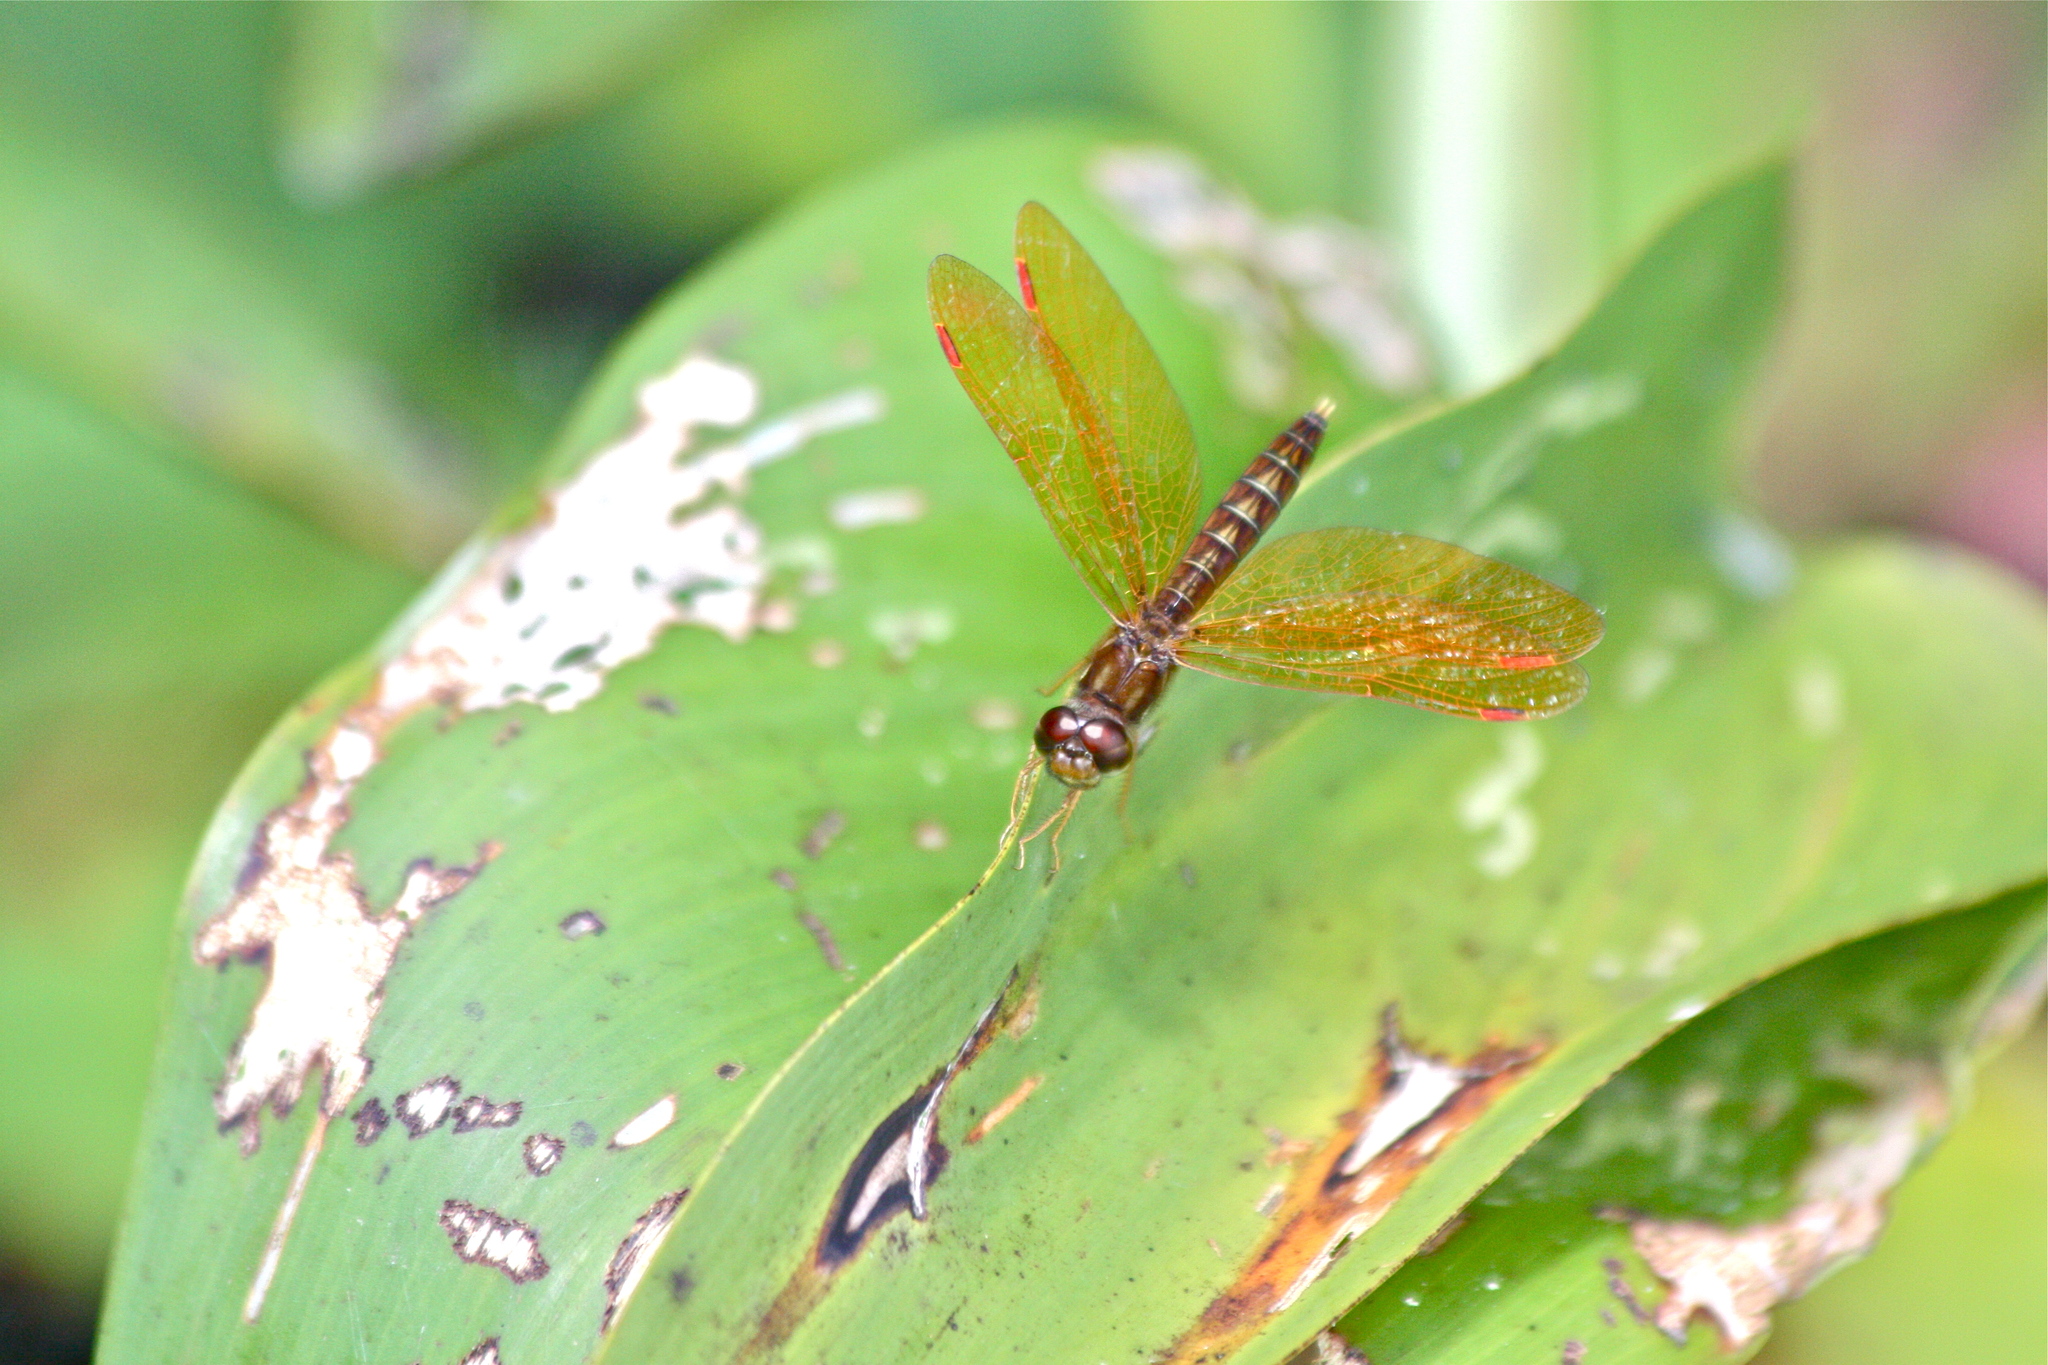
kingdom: Animalia
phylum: Arthropoda
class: Insecta
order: Odonata
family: Libellulidae
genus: Perithemis
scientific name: Perithemis tenera
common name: Eastern amberwing
